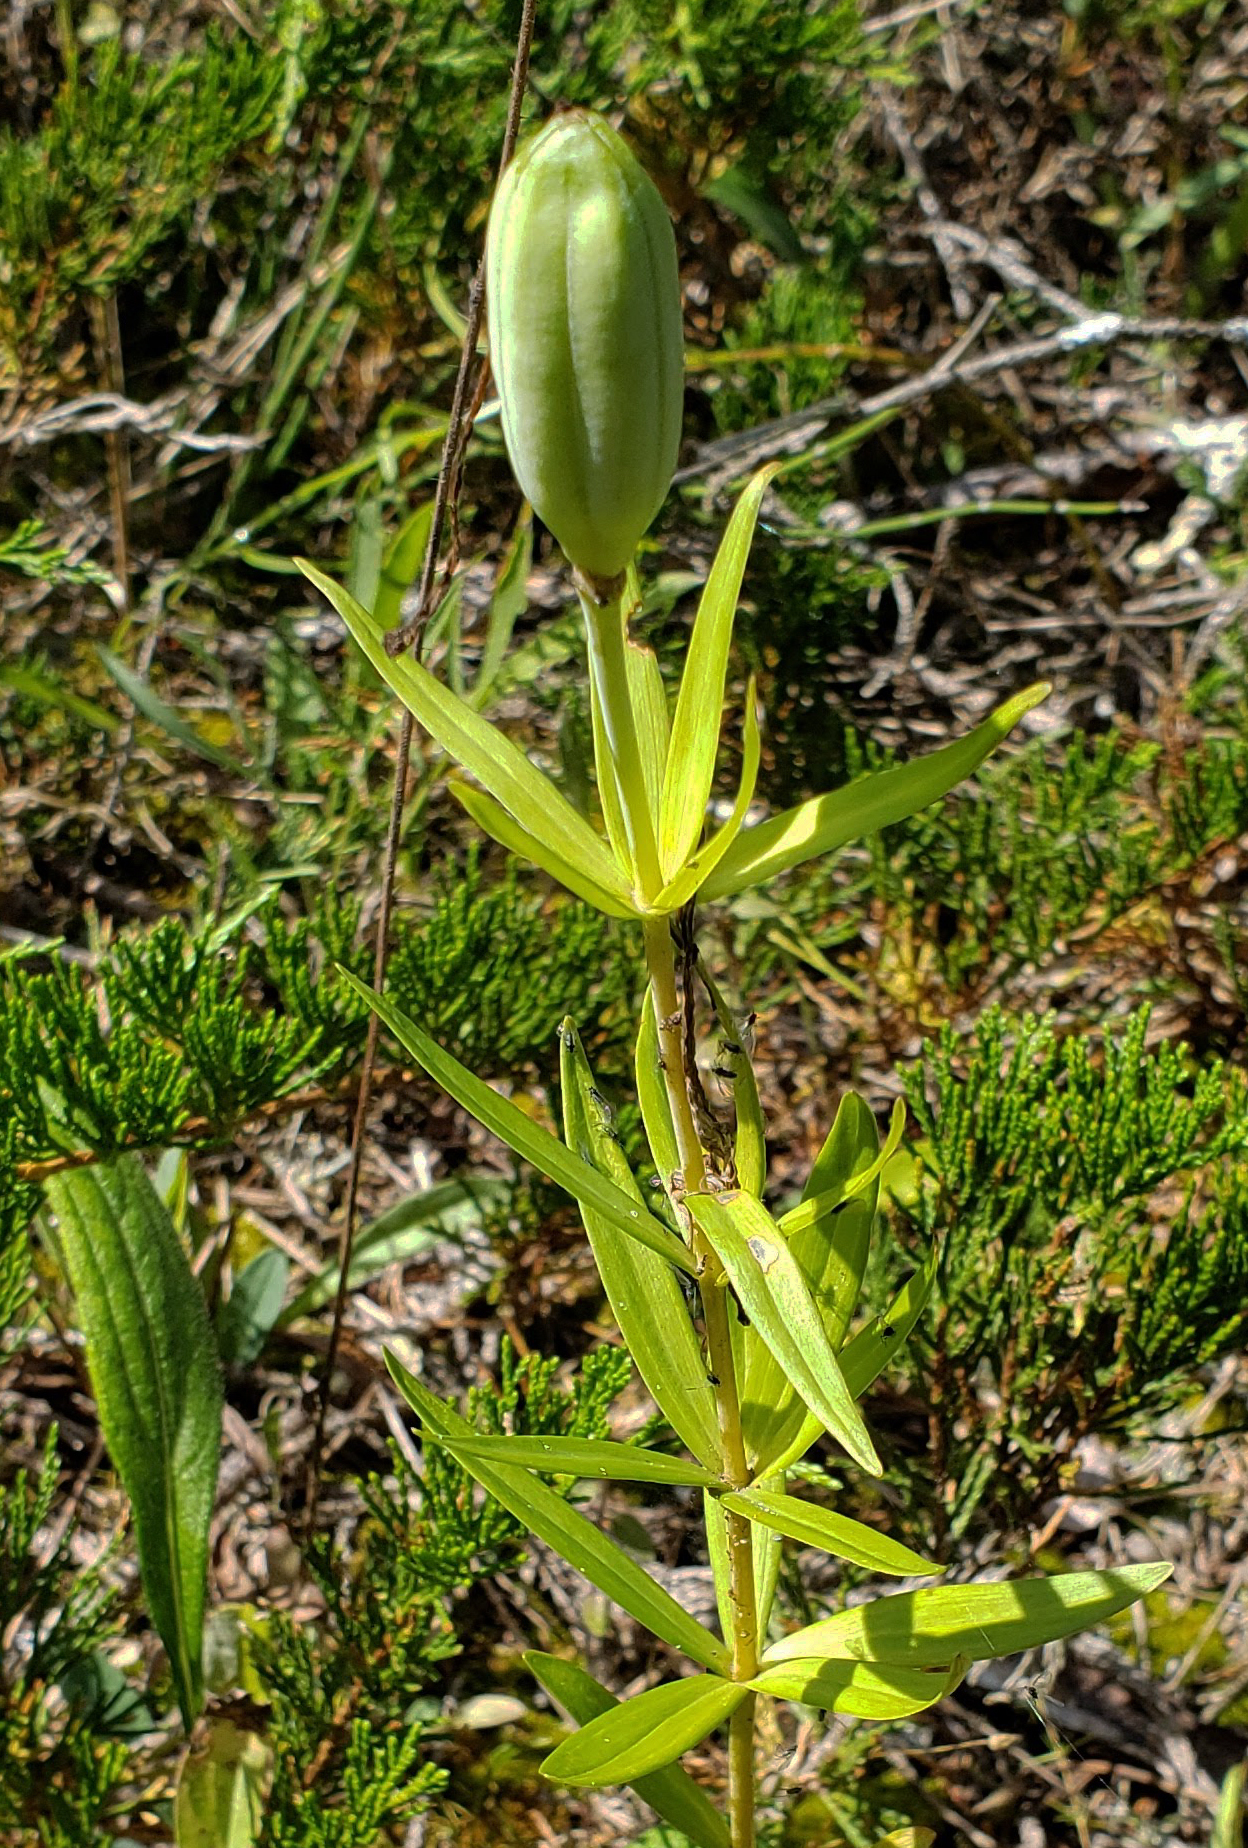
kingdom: Plantae
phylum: Tracheophyta
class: Liliopsida
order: Liliales
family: Liliaceae
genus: Lilium
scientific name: Lilium philadelphicum
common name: Red lily
